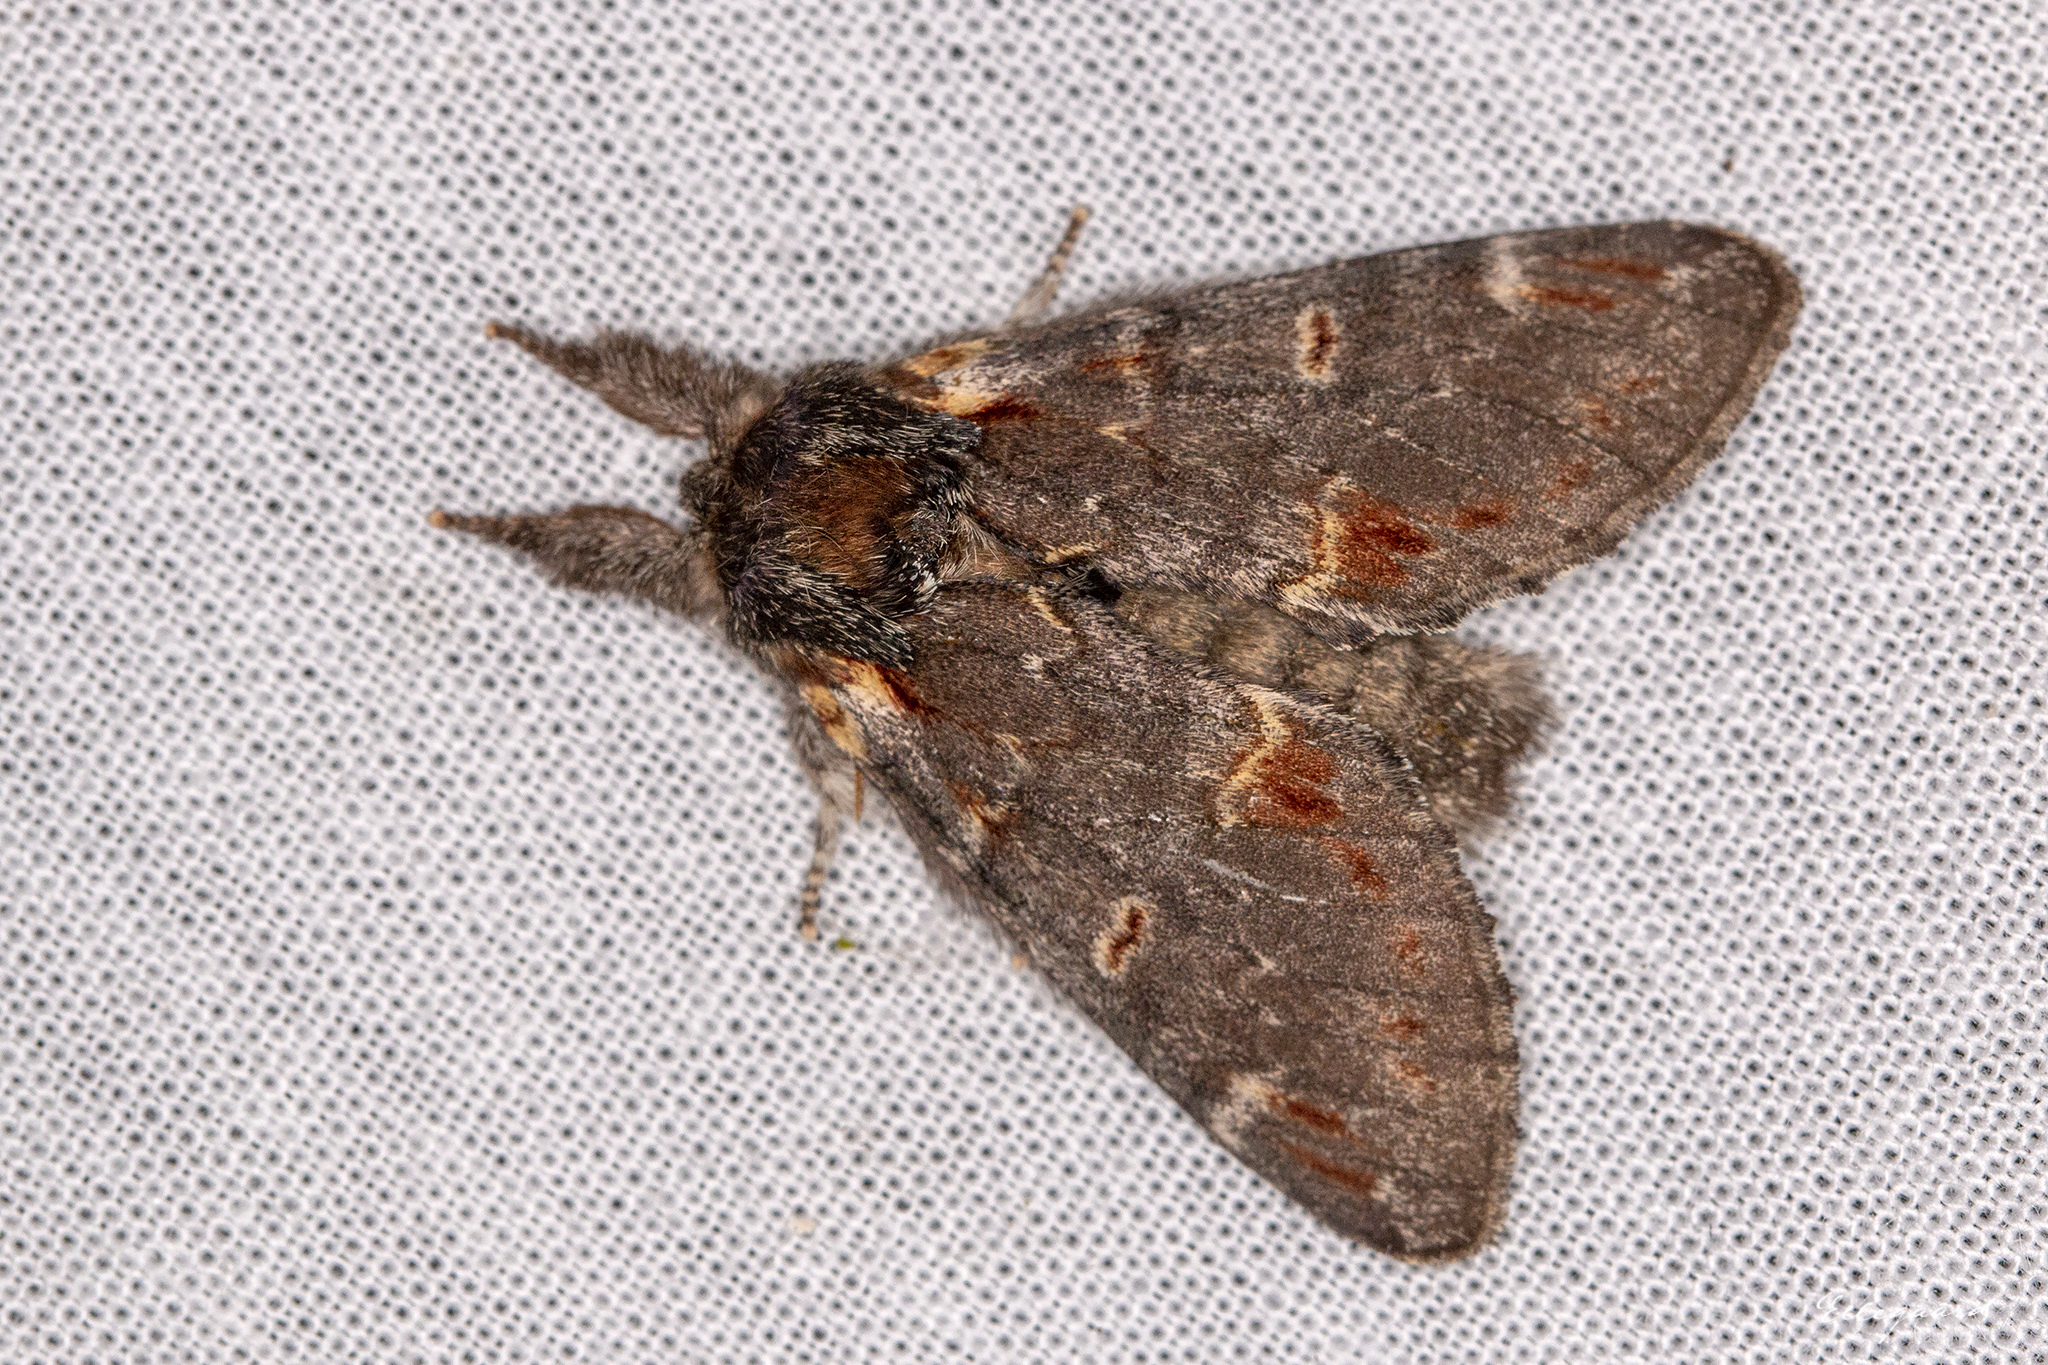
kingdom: Animalia
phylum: Arthropoda
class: Insecta
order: Lepidoptera
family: Notodontidae
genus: Notodonta
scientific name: Notodonta dromedarius
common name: Iron prominent
